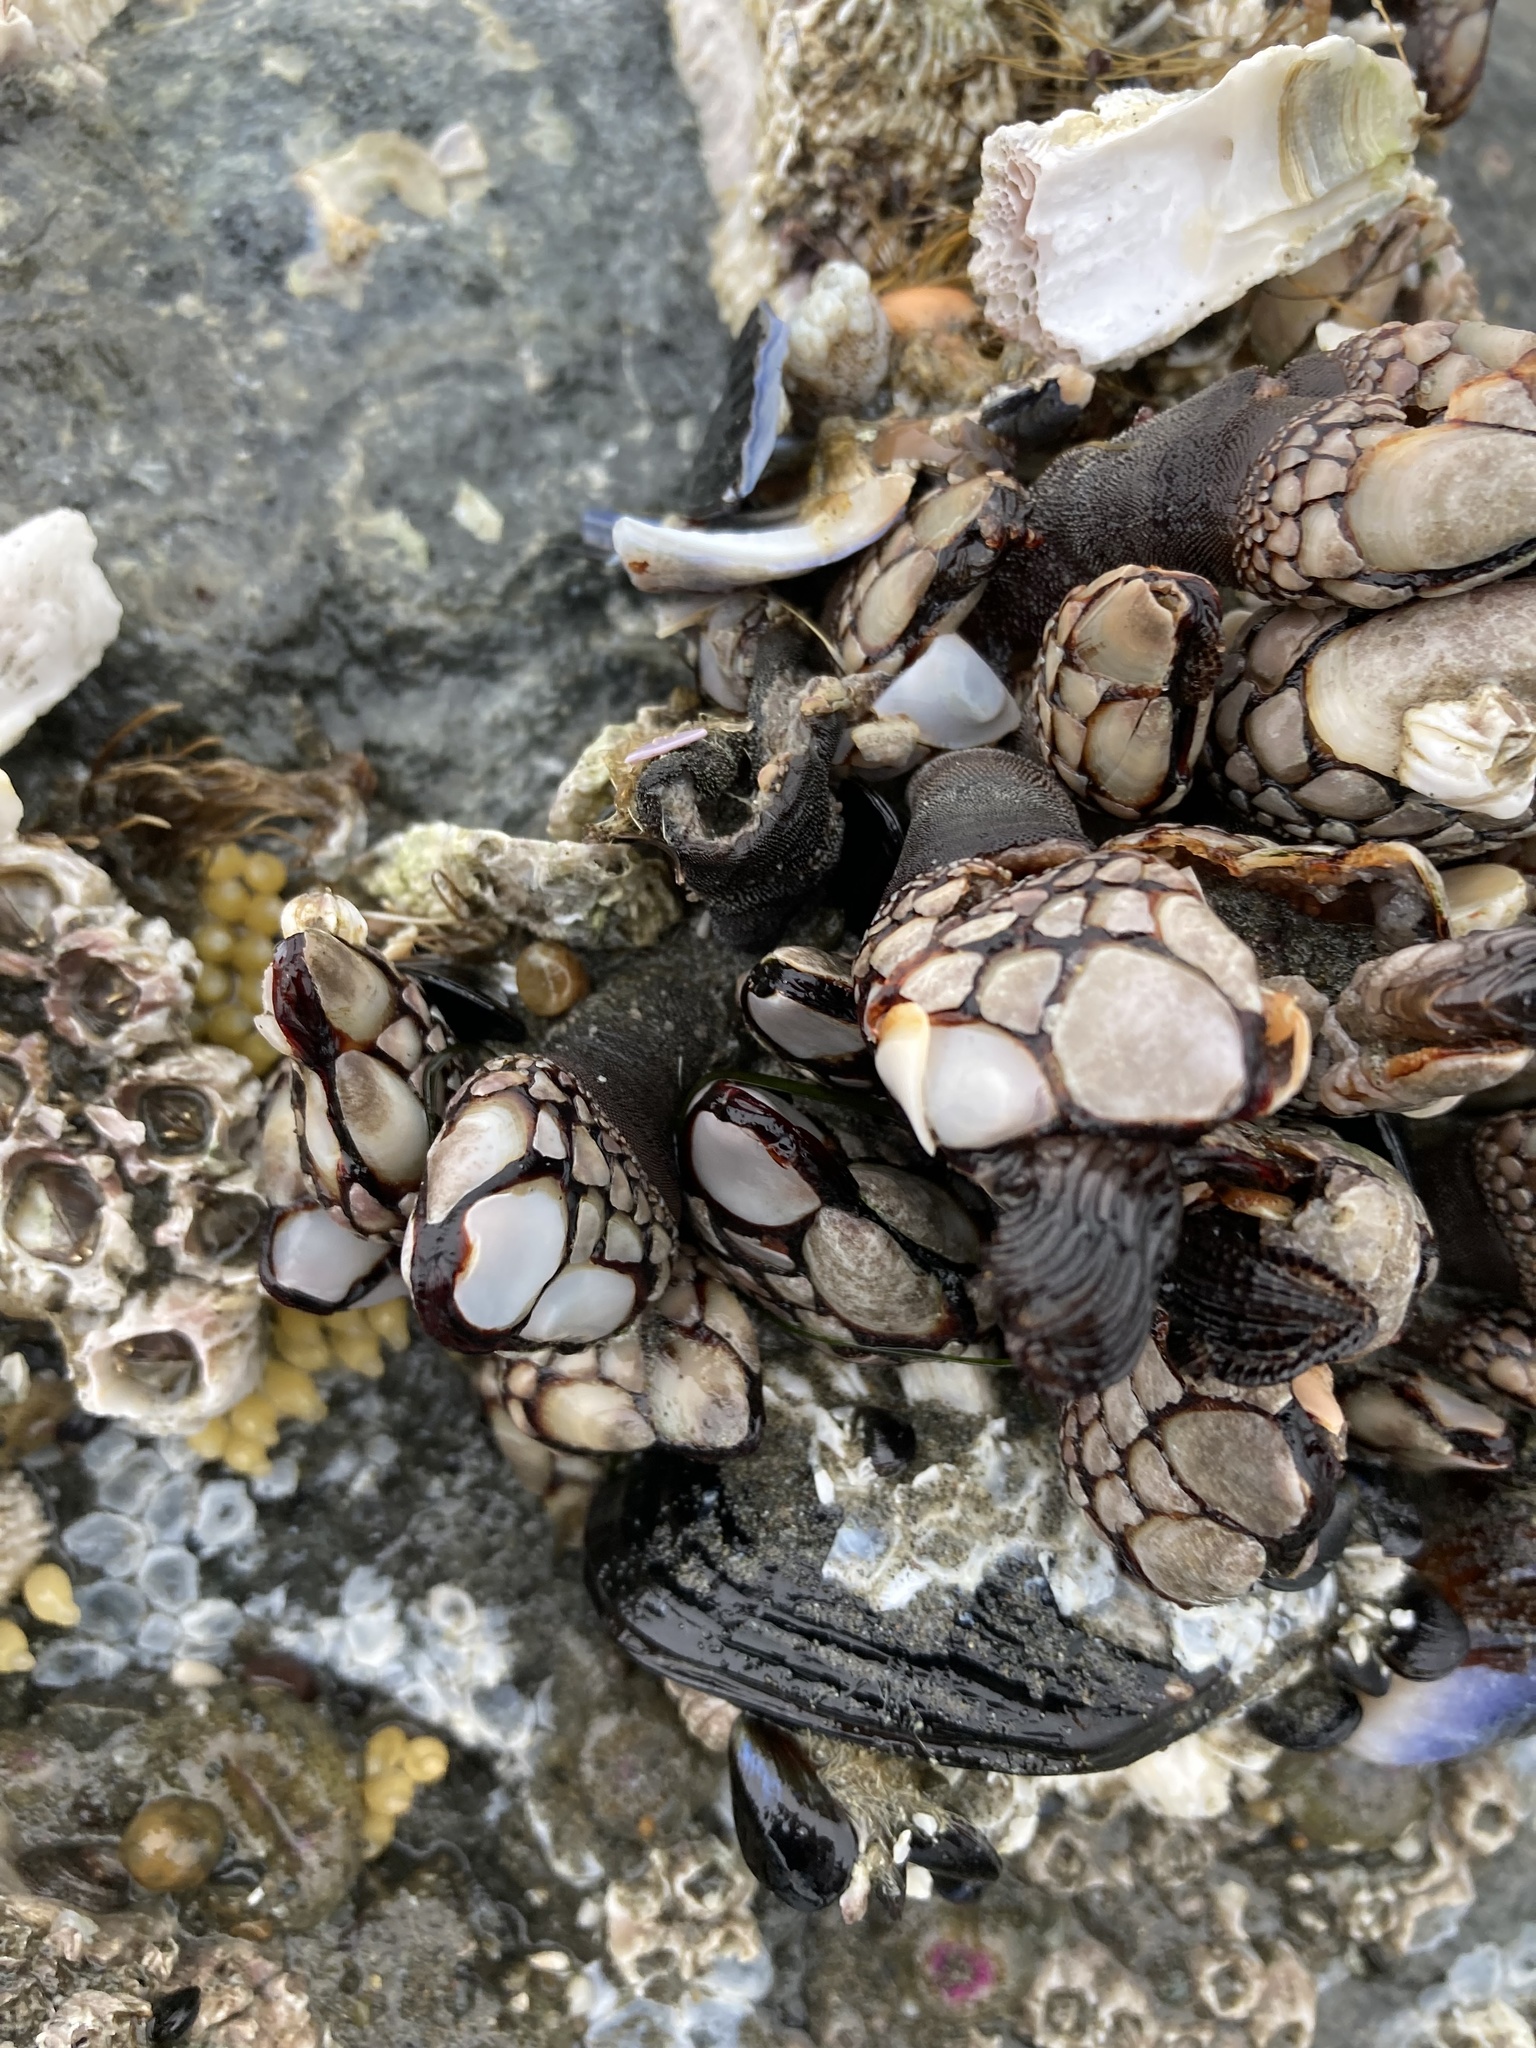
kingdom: Animalia
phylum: Arthropoda
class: Maxillopoda
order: Pedunculata
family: Pollicipedidae
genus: Pollicipes
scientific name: Pollicipes polymerus
